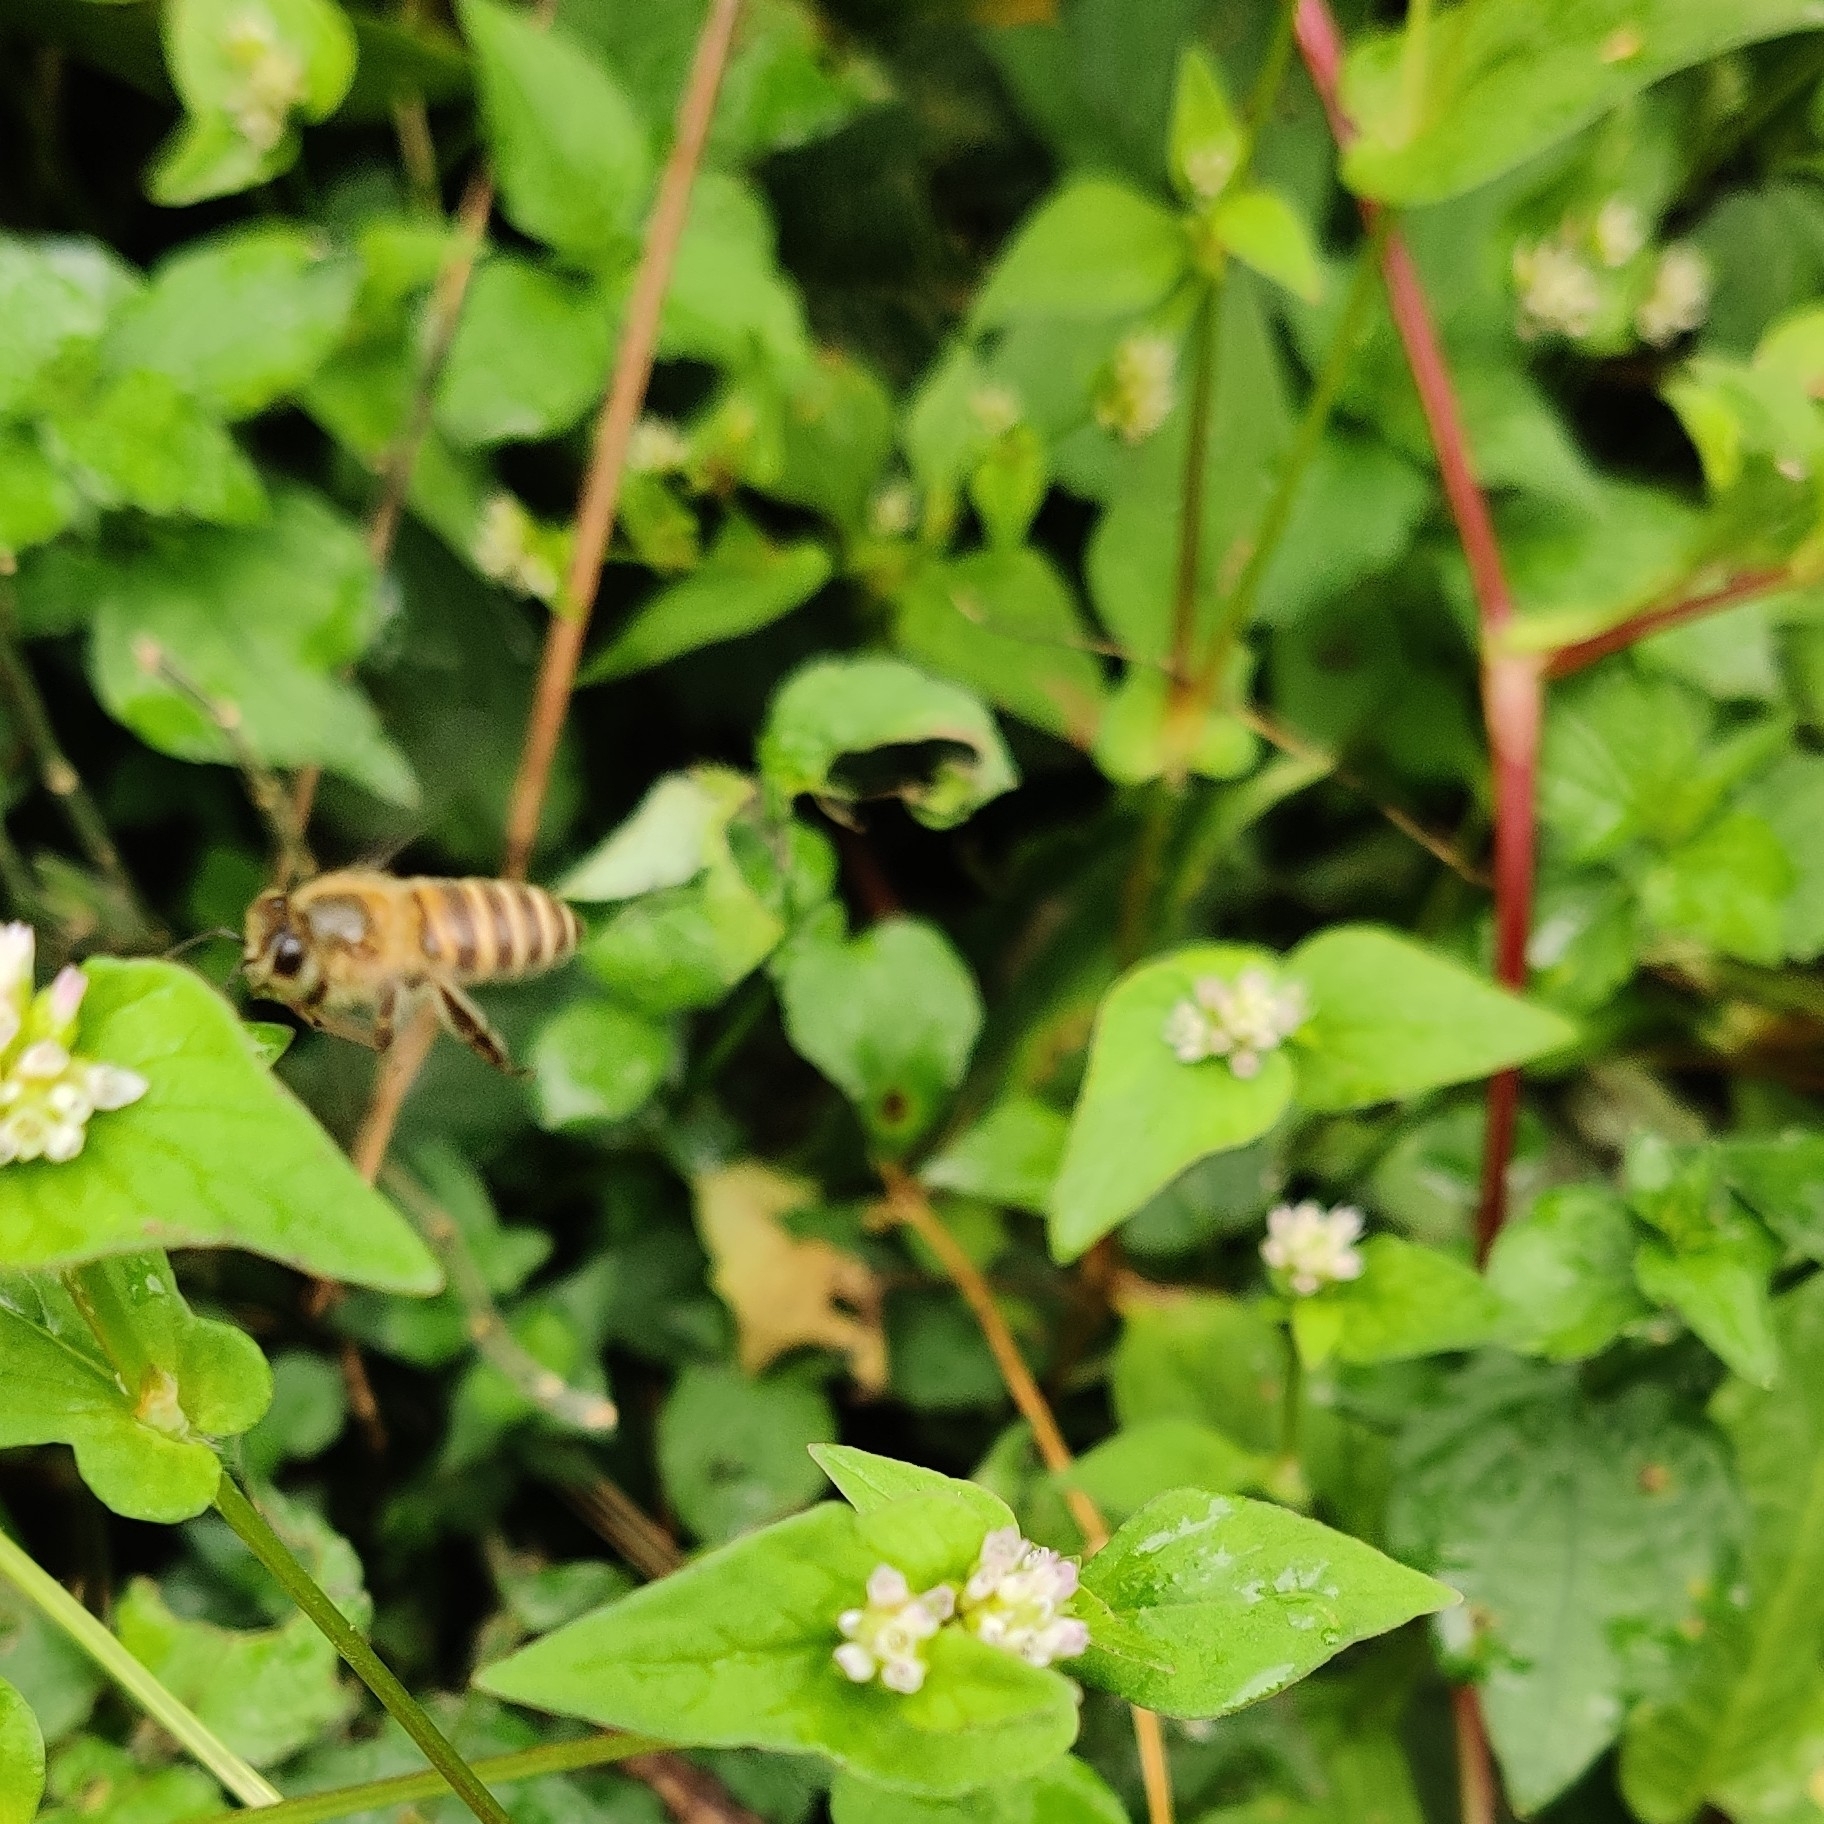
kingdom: Animalia
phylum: Arthropoda
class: Insecta
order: Hymenoptera
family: Apidae
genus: Apis
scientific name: Apis cerana
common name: Honey bee
